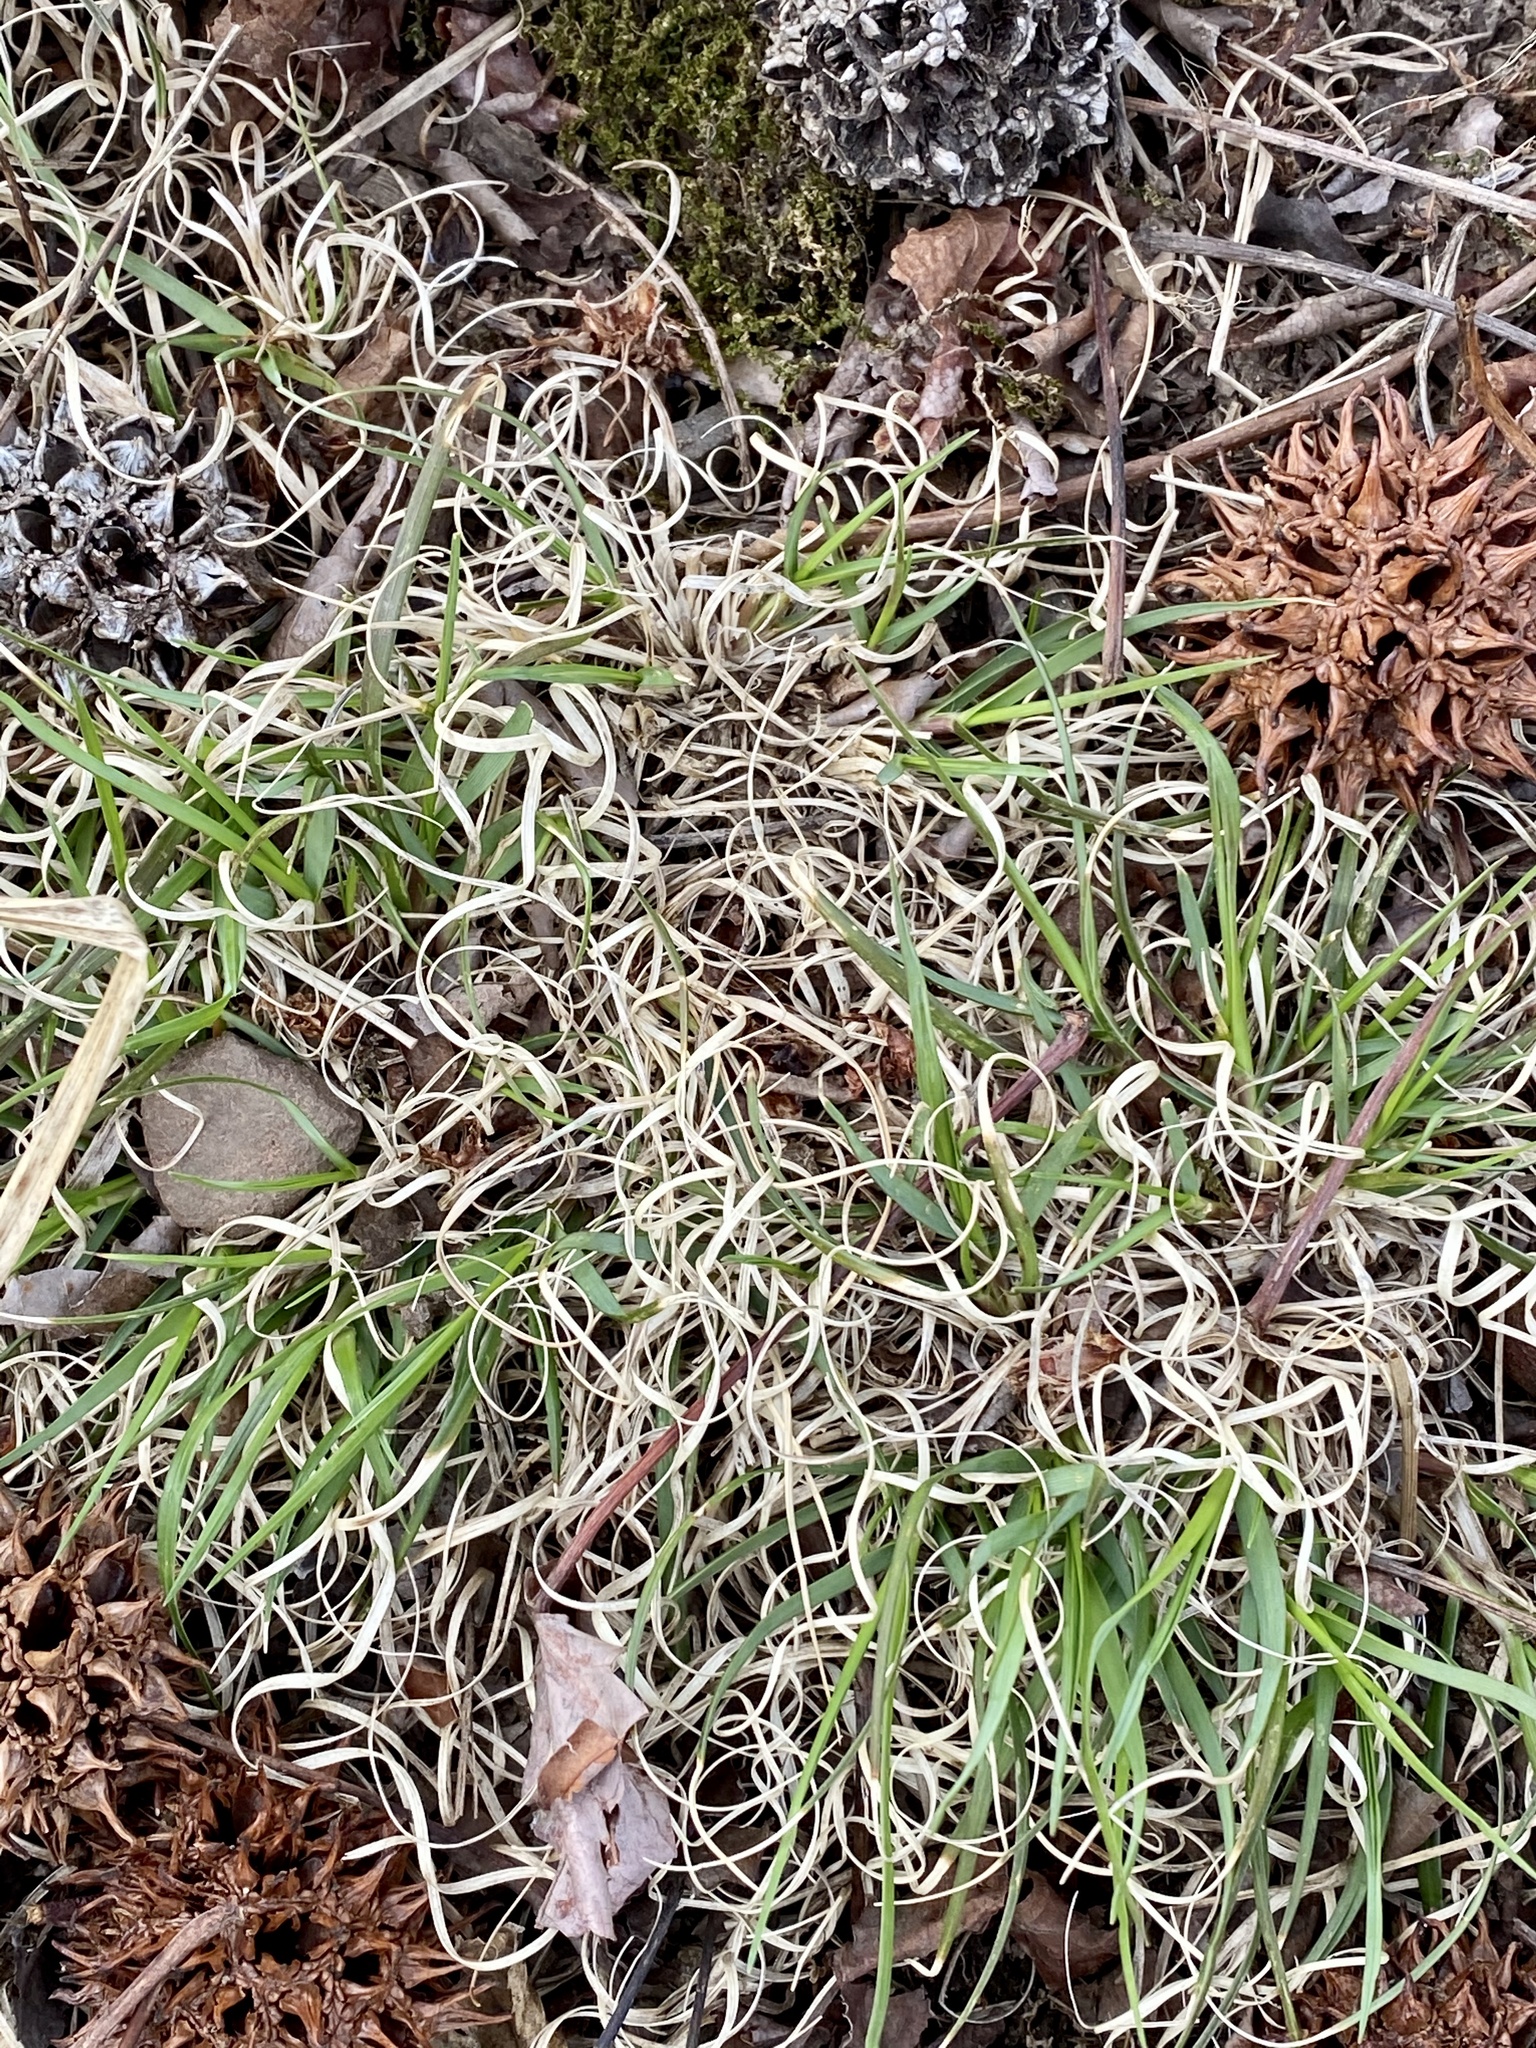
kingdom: Plantae
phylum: Tracheophyta
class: Liliopsida
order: Poales
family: Poaceae
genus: Danthonia
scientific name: Danthonia spicata
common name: Common wild oatgrass
